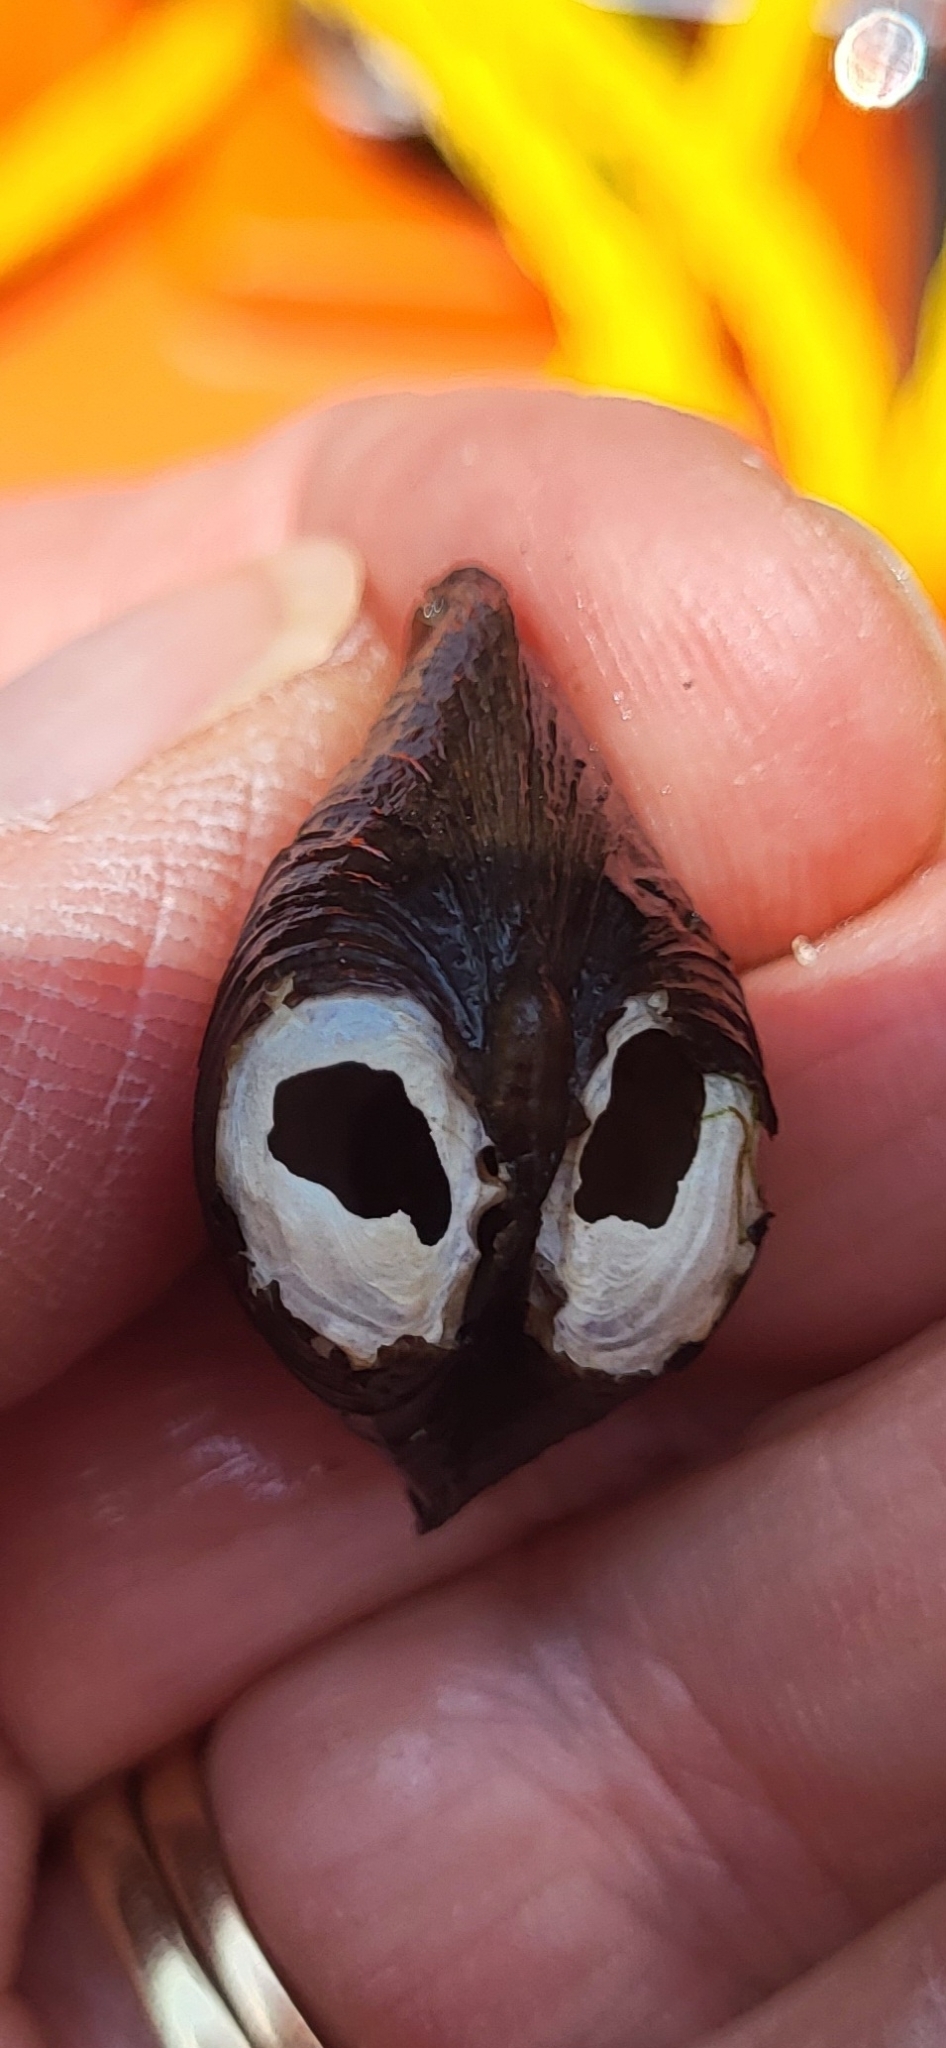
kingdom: Animalia
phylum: Mollusca
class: Bivalvia
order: Venerida
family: Cyrenidae
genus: Corbicula
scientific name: Corbicula fluminea
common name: Asian clam
